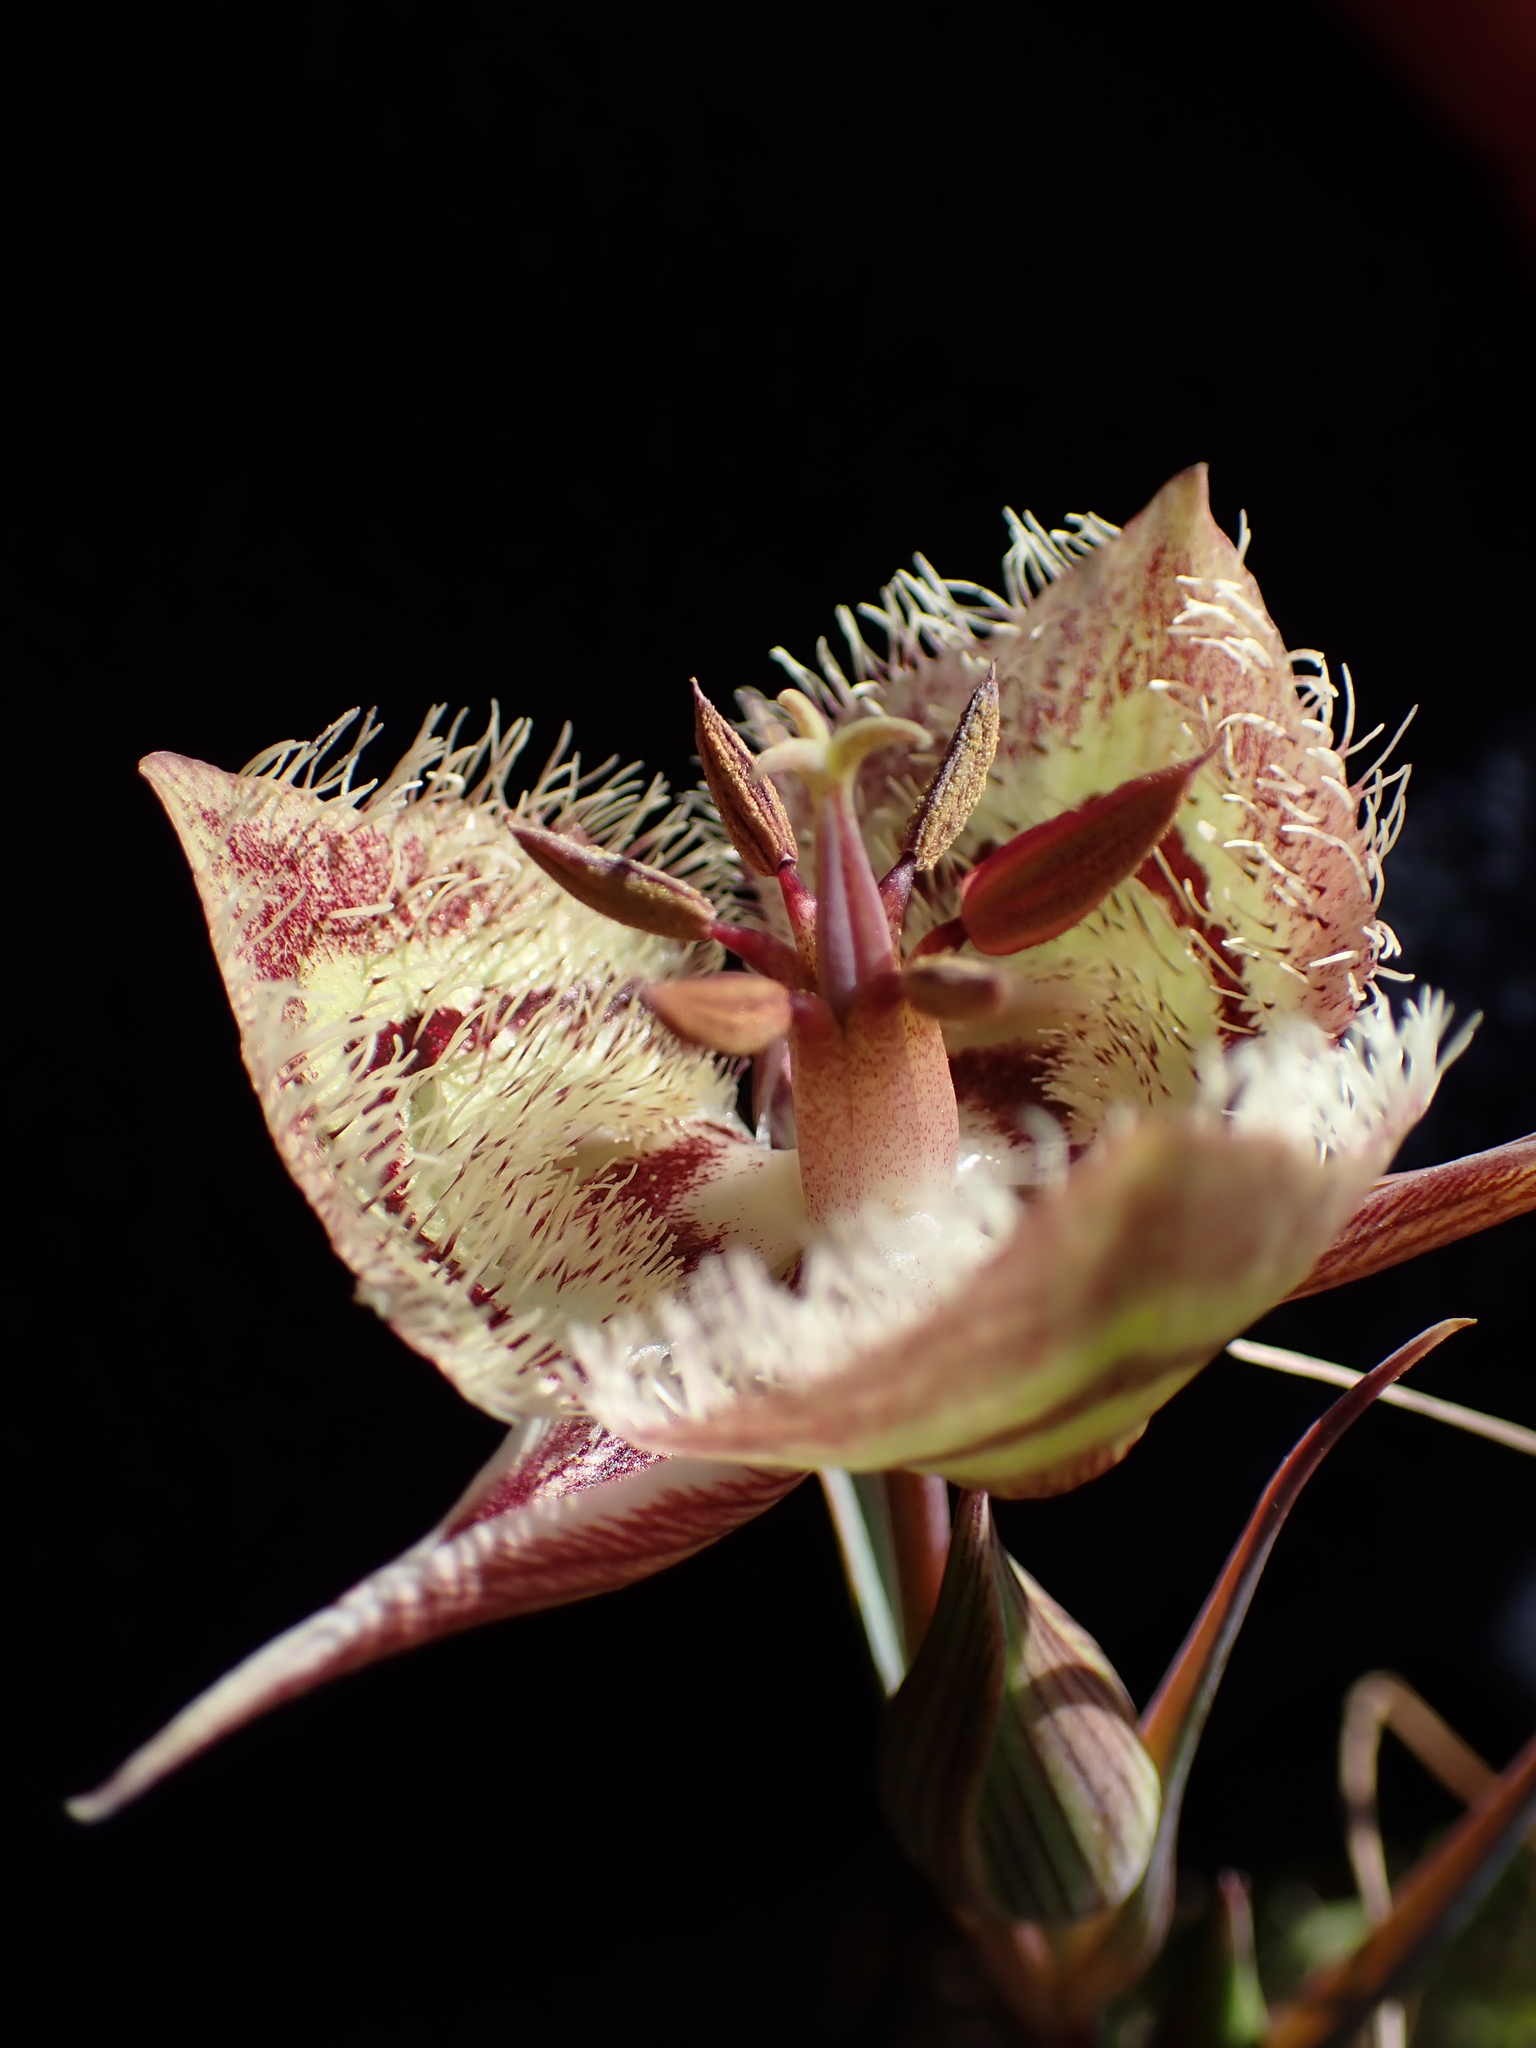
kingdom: Plantae
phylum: Tracheophyta
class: Liliopsida
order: Liliales
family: Liliaceae
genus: Calochortus
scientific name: Calochortus tiburonensis
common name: Tiburon mariposa-lily
